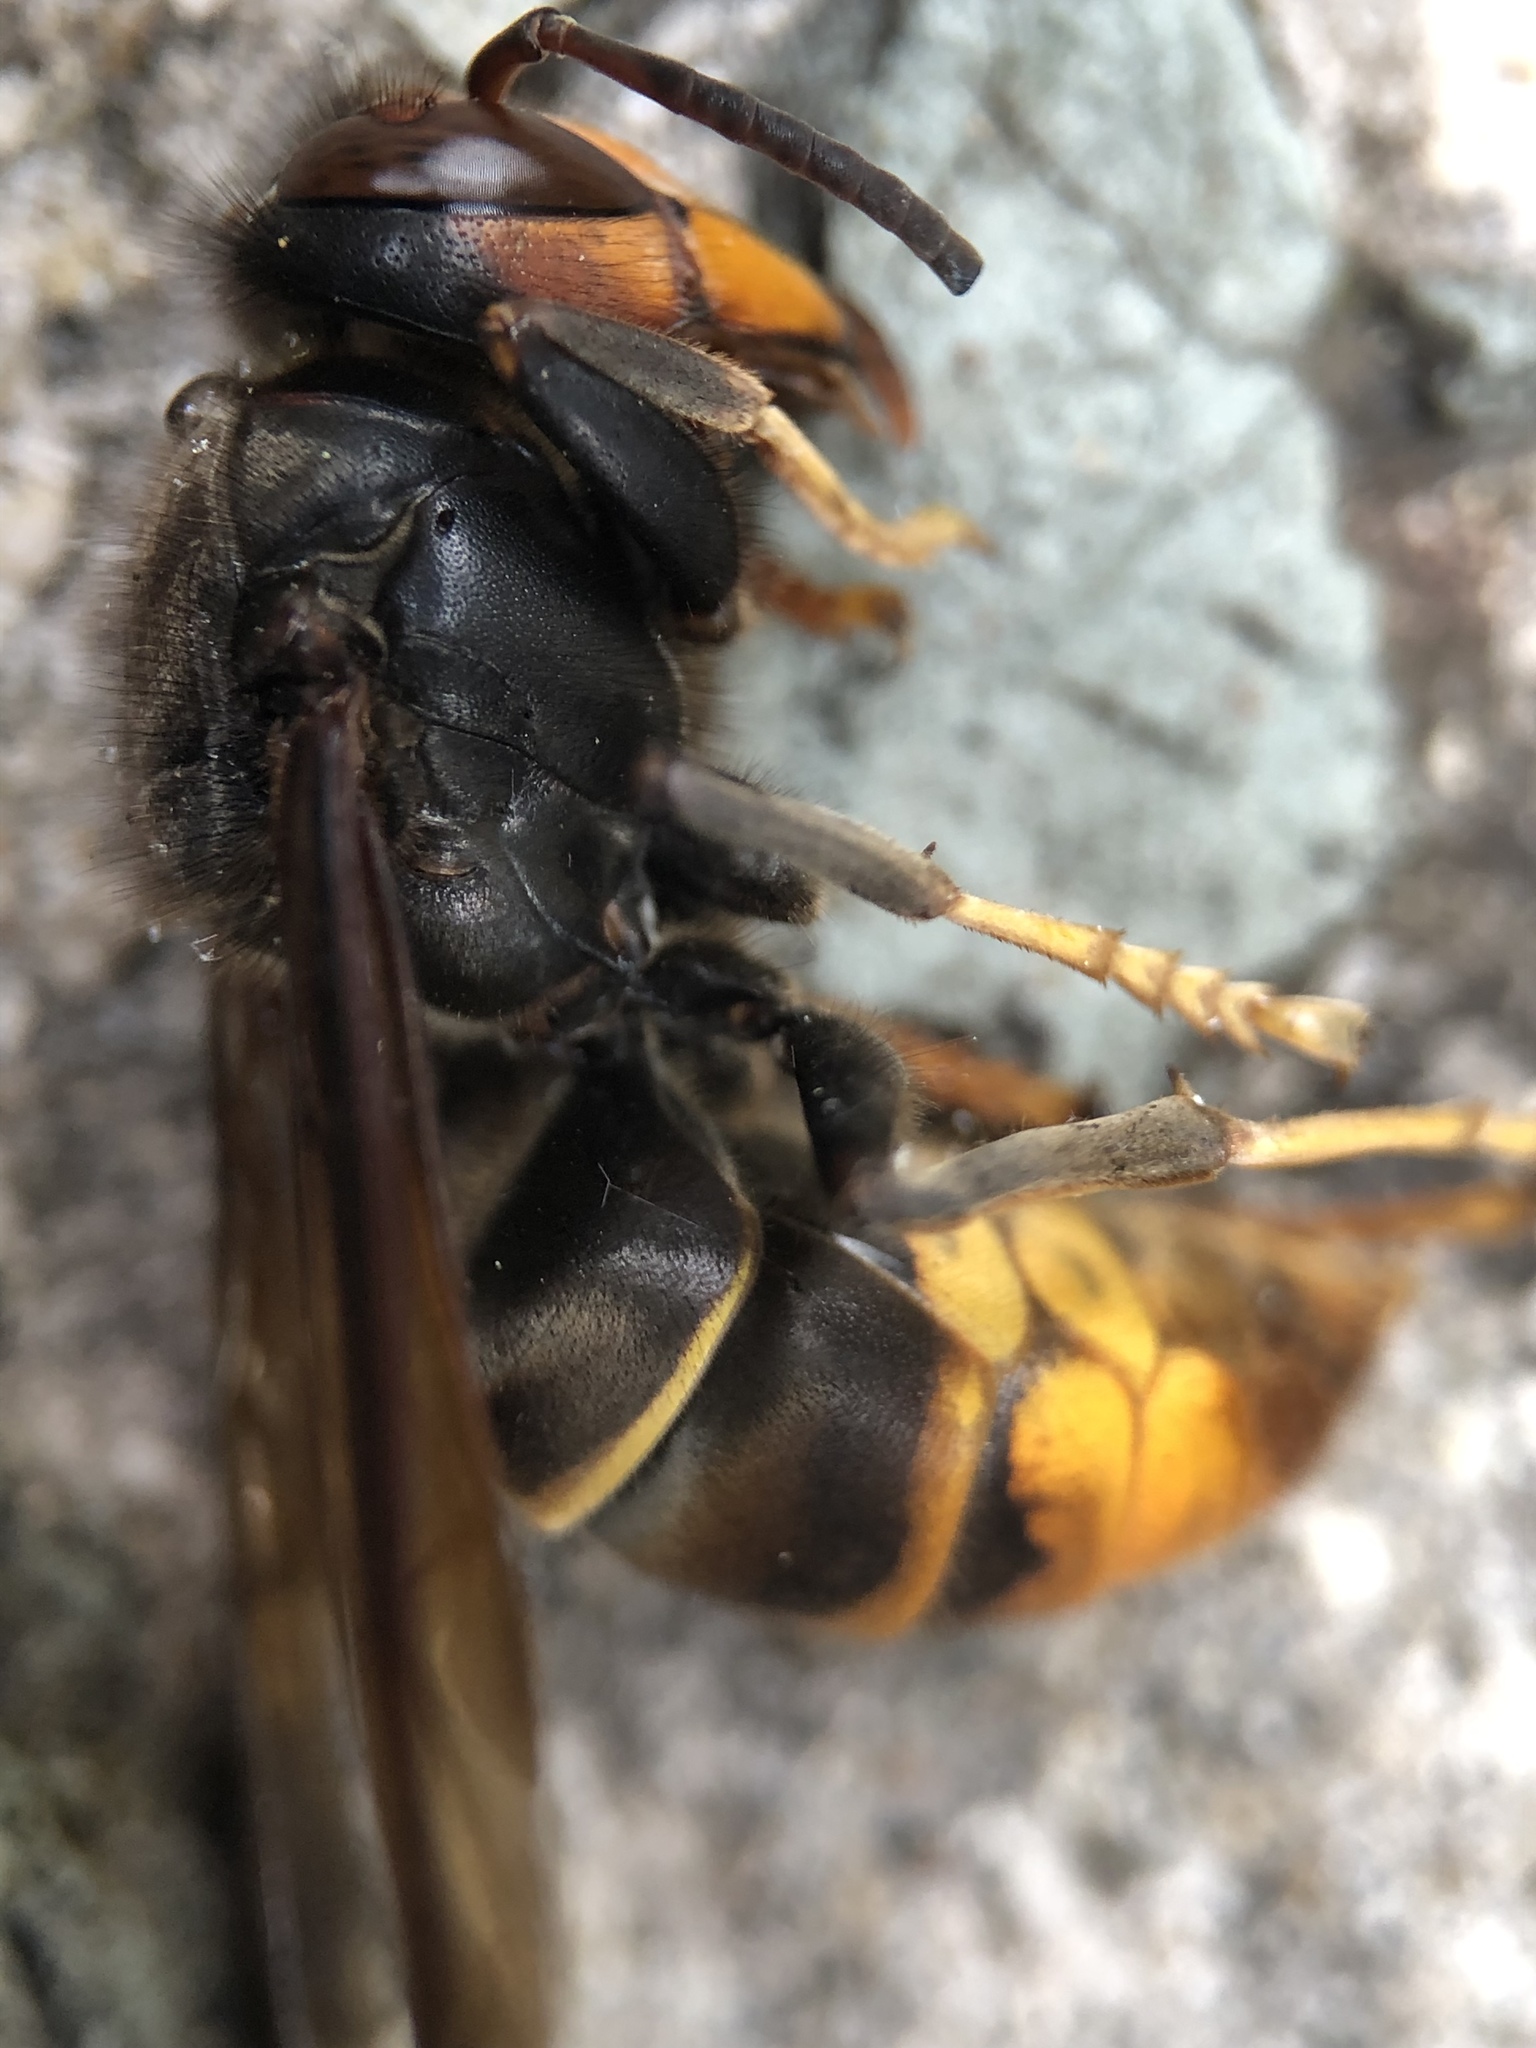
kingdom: Animalia
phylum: Arthropoda
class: Insecta
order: Hymenoptera
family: Vespidae
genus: Vespa
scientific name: Vespa velutina
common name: Asian hornet
